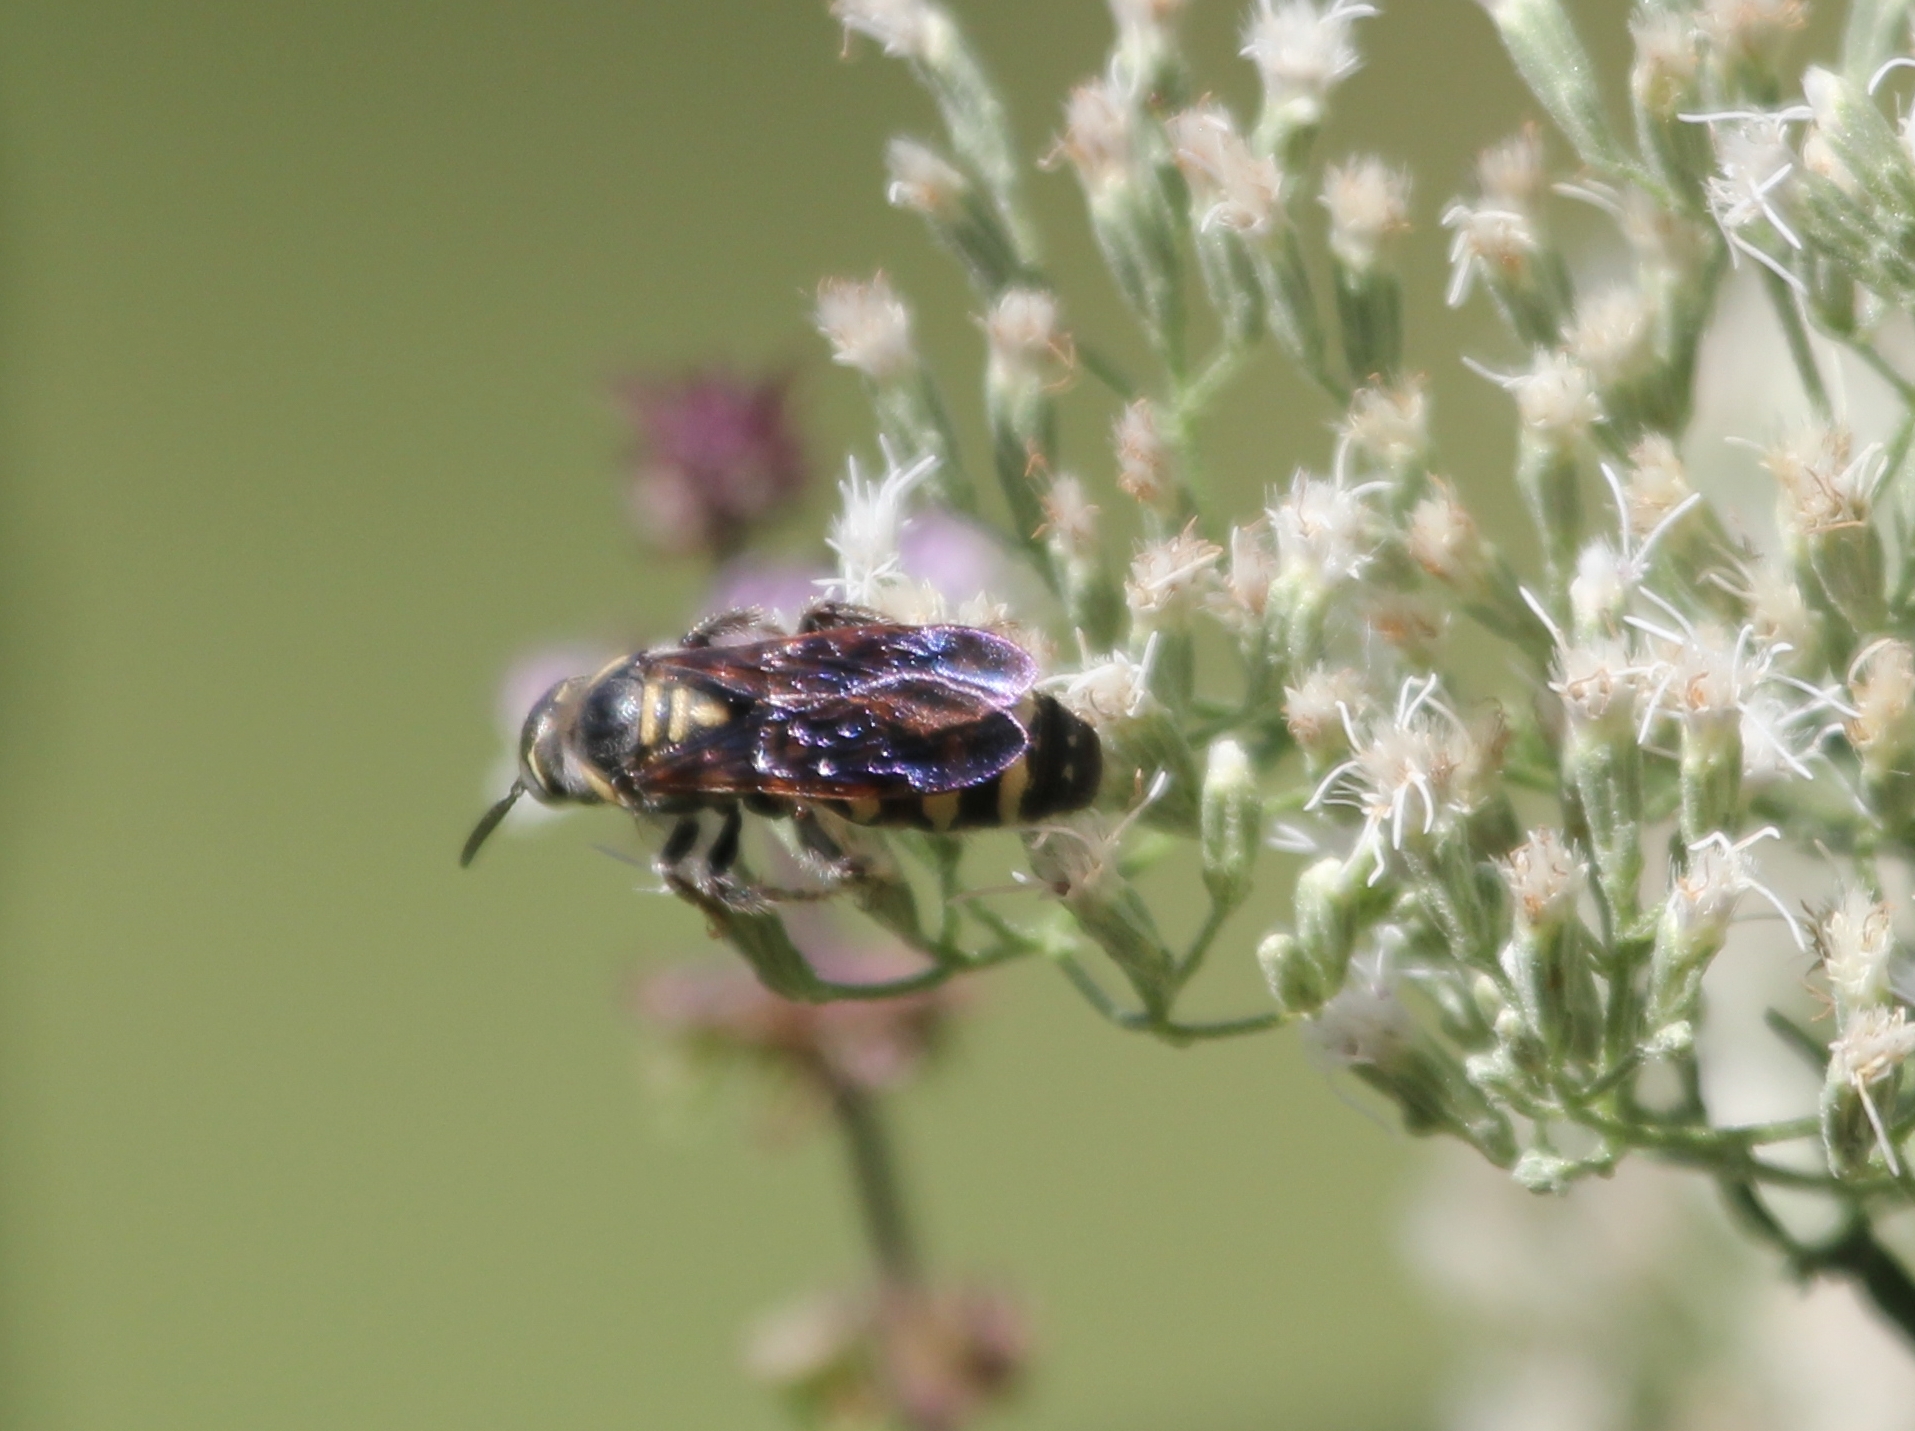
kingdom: Animalia
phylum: Arthropoda
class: Insecta
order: Hymenoptera
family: Scoliidae
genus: Colpa
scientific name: Colpa octomaculata
